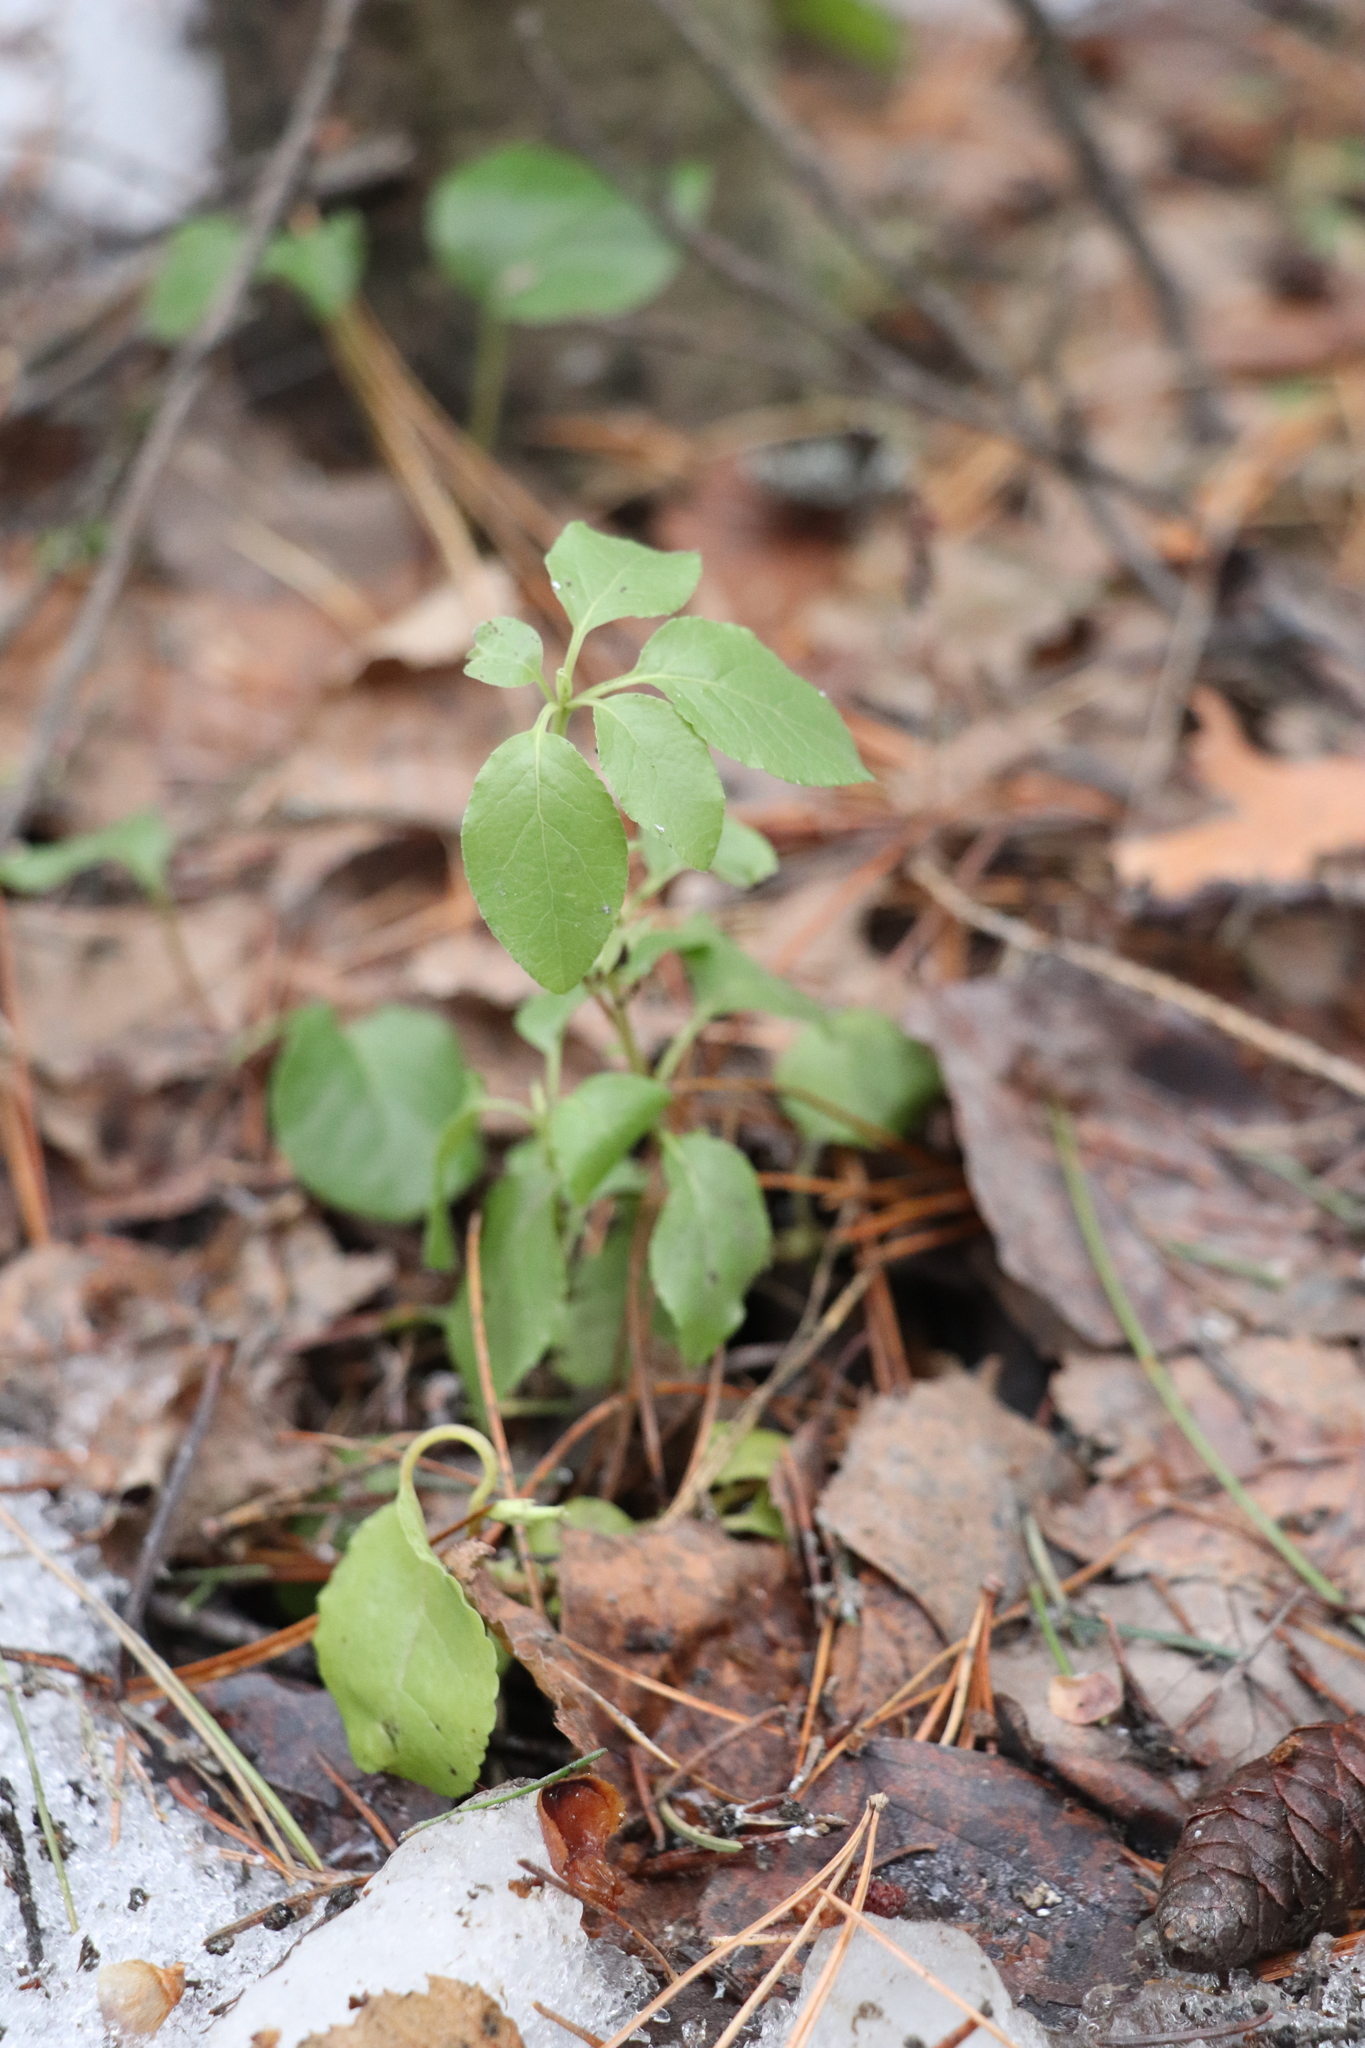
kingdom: Plantae
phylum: Tracheophyta
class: Magnoliopsida
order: Ericales
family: Ericaceae
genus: Orthilia
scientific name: Orthilia secunda
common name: One-sided orthilia
